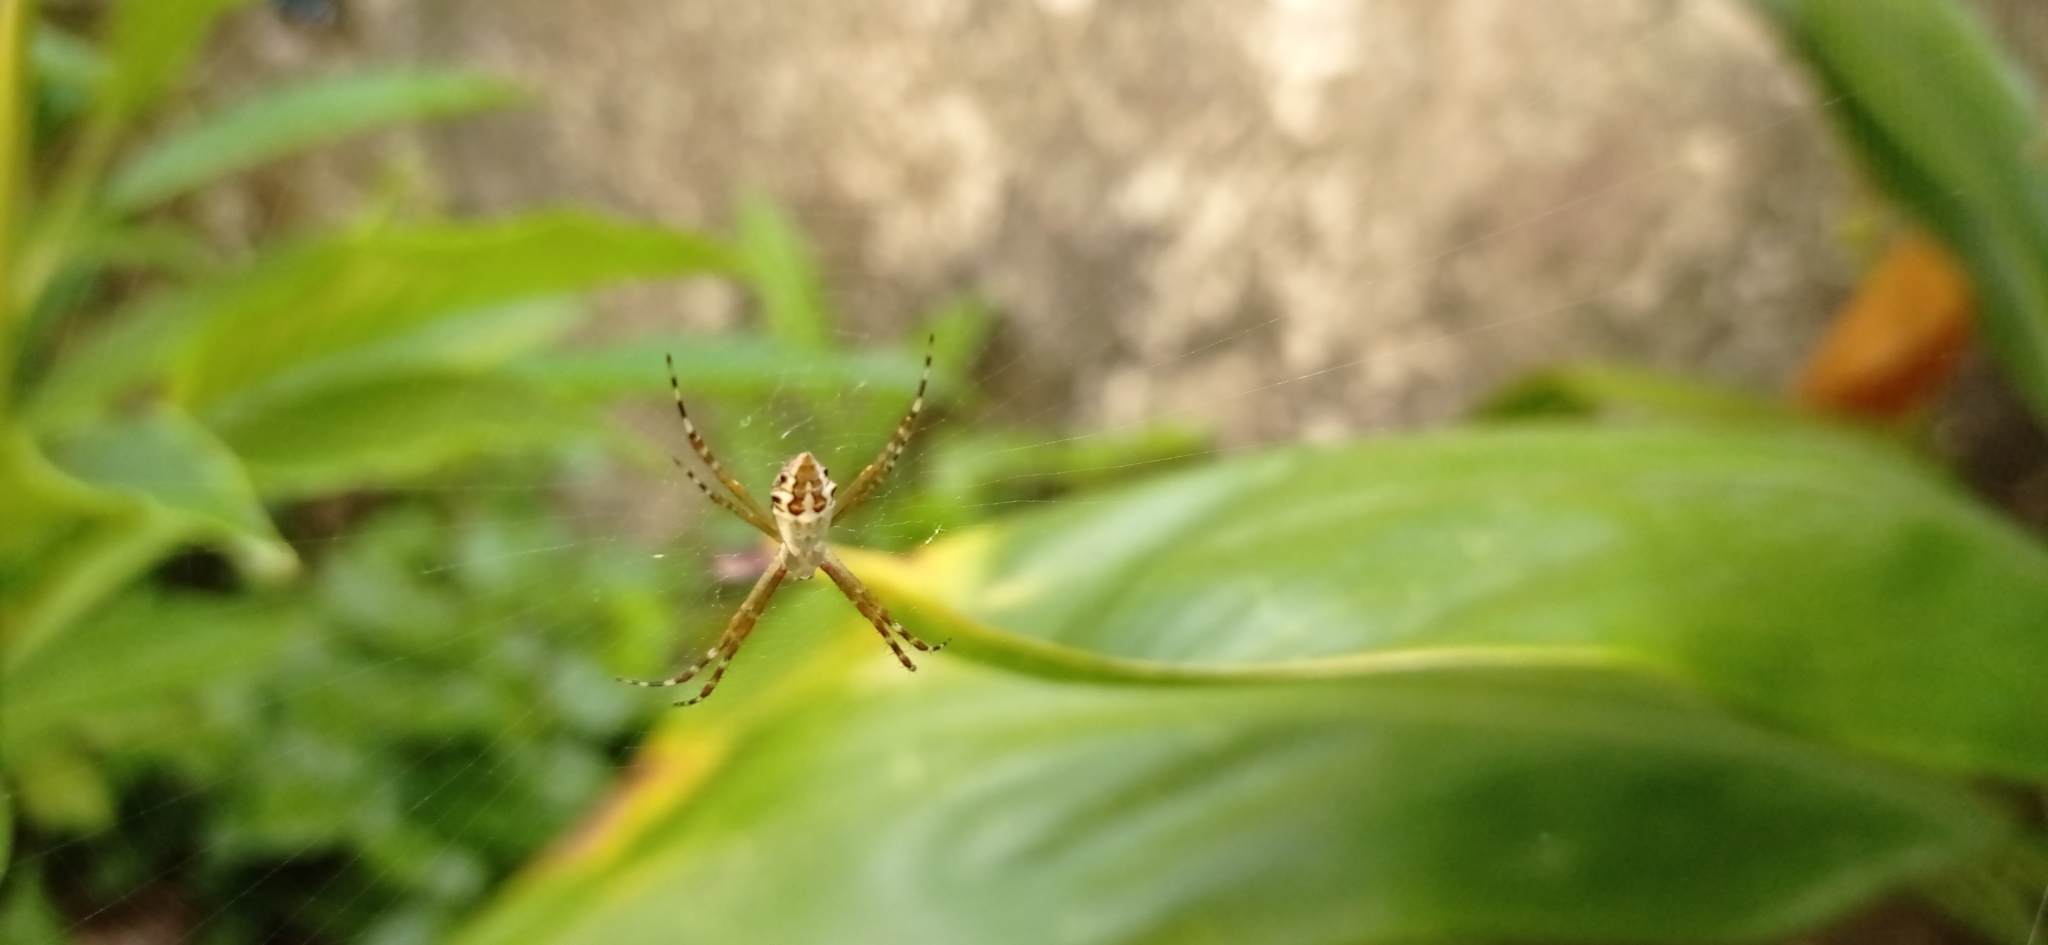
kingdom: Animalia
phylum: Arthropoda
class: Arachnida
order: Araneae
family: Araneidae
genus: Argiope
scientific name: Argiope argentata
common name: Orb weavers
